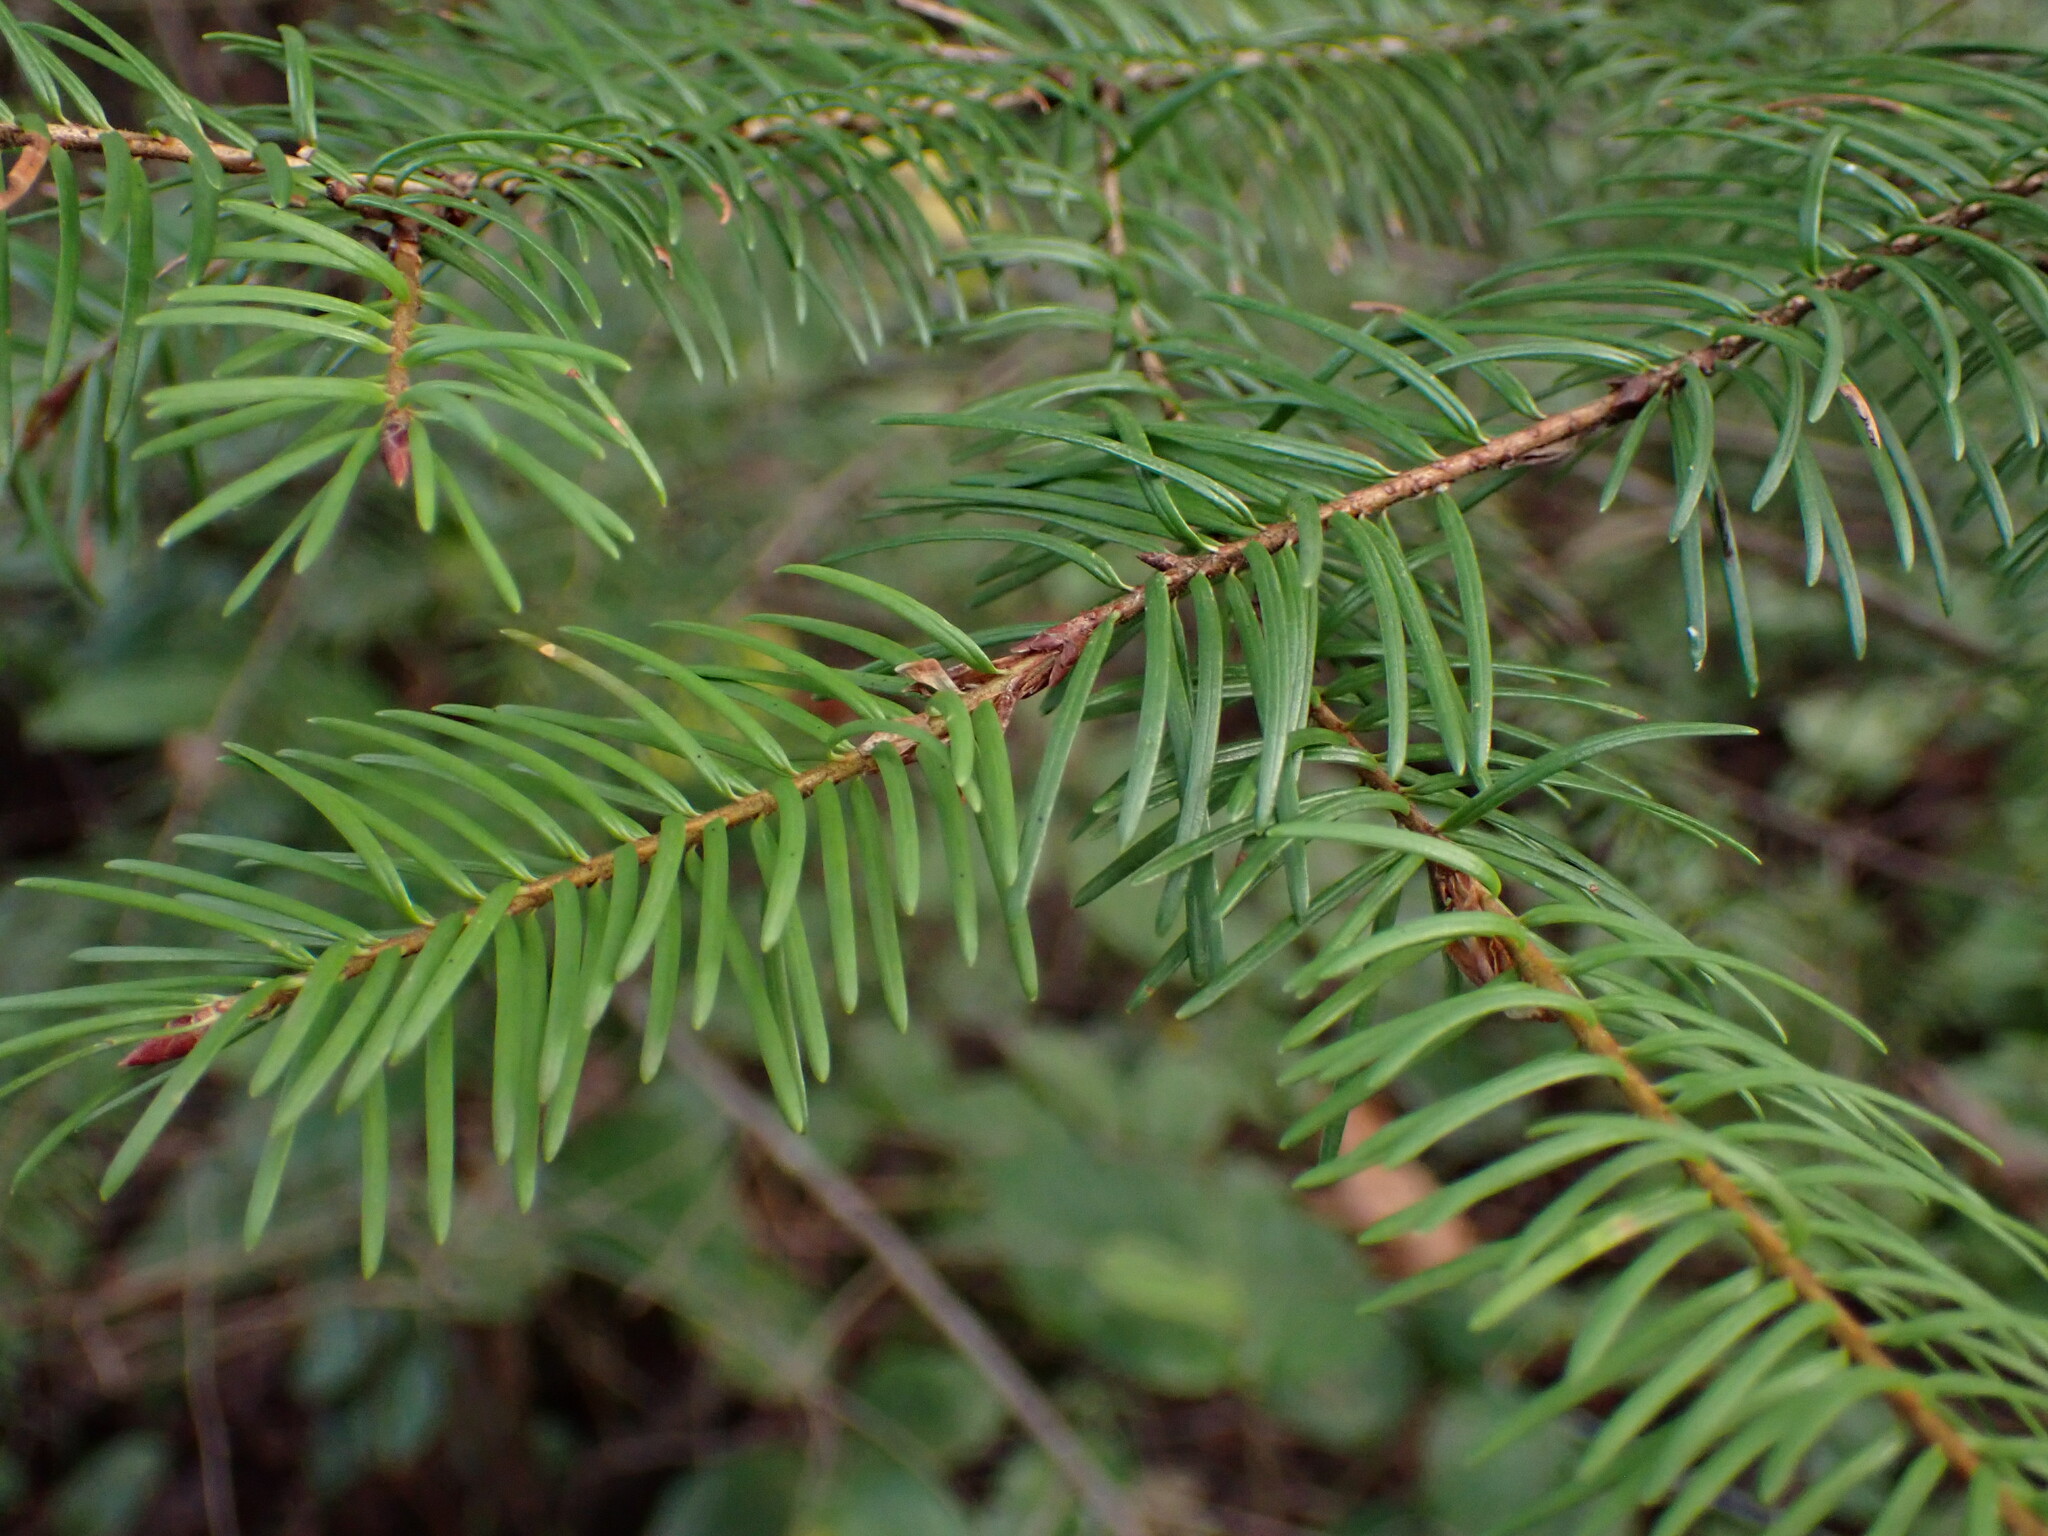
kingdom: Plantae
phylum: Tracheophyta
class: Pinopsida
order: Pinales
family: Pinaceae
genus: Pseudotsuga
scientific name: Pseudotsuga menziesii
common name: Douglas fir
